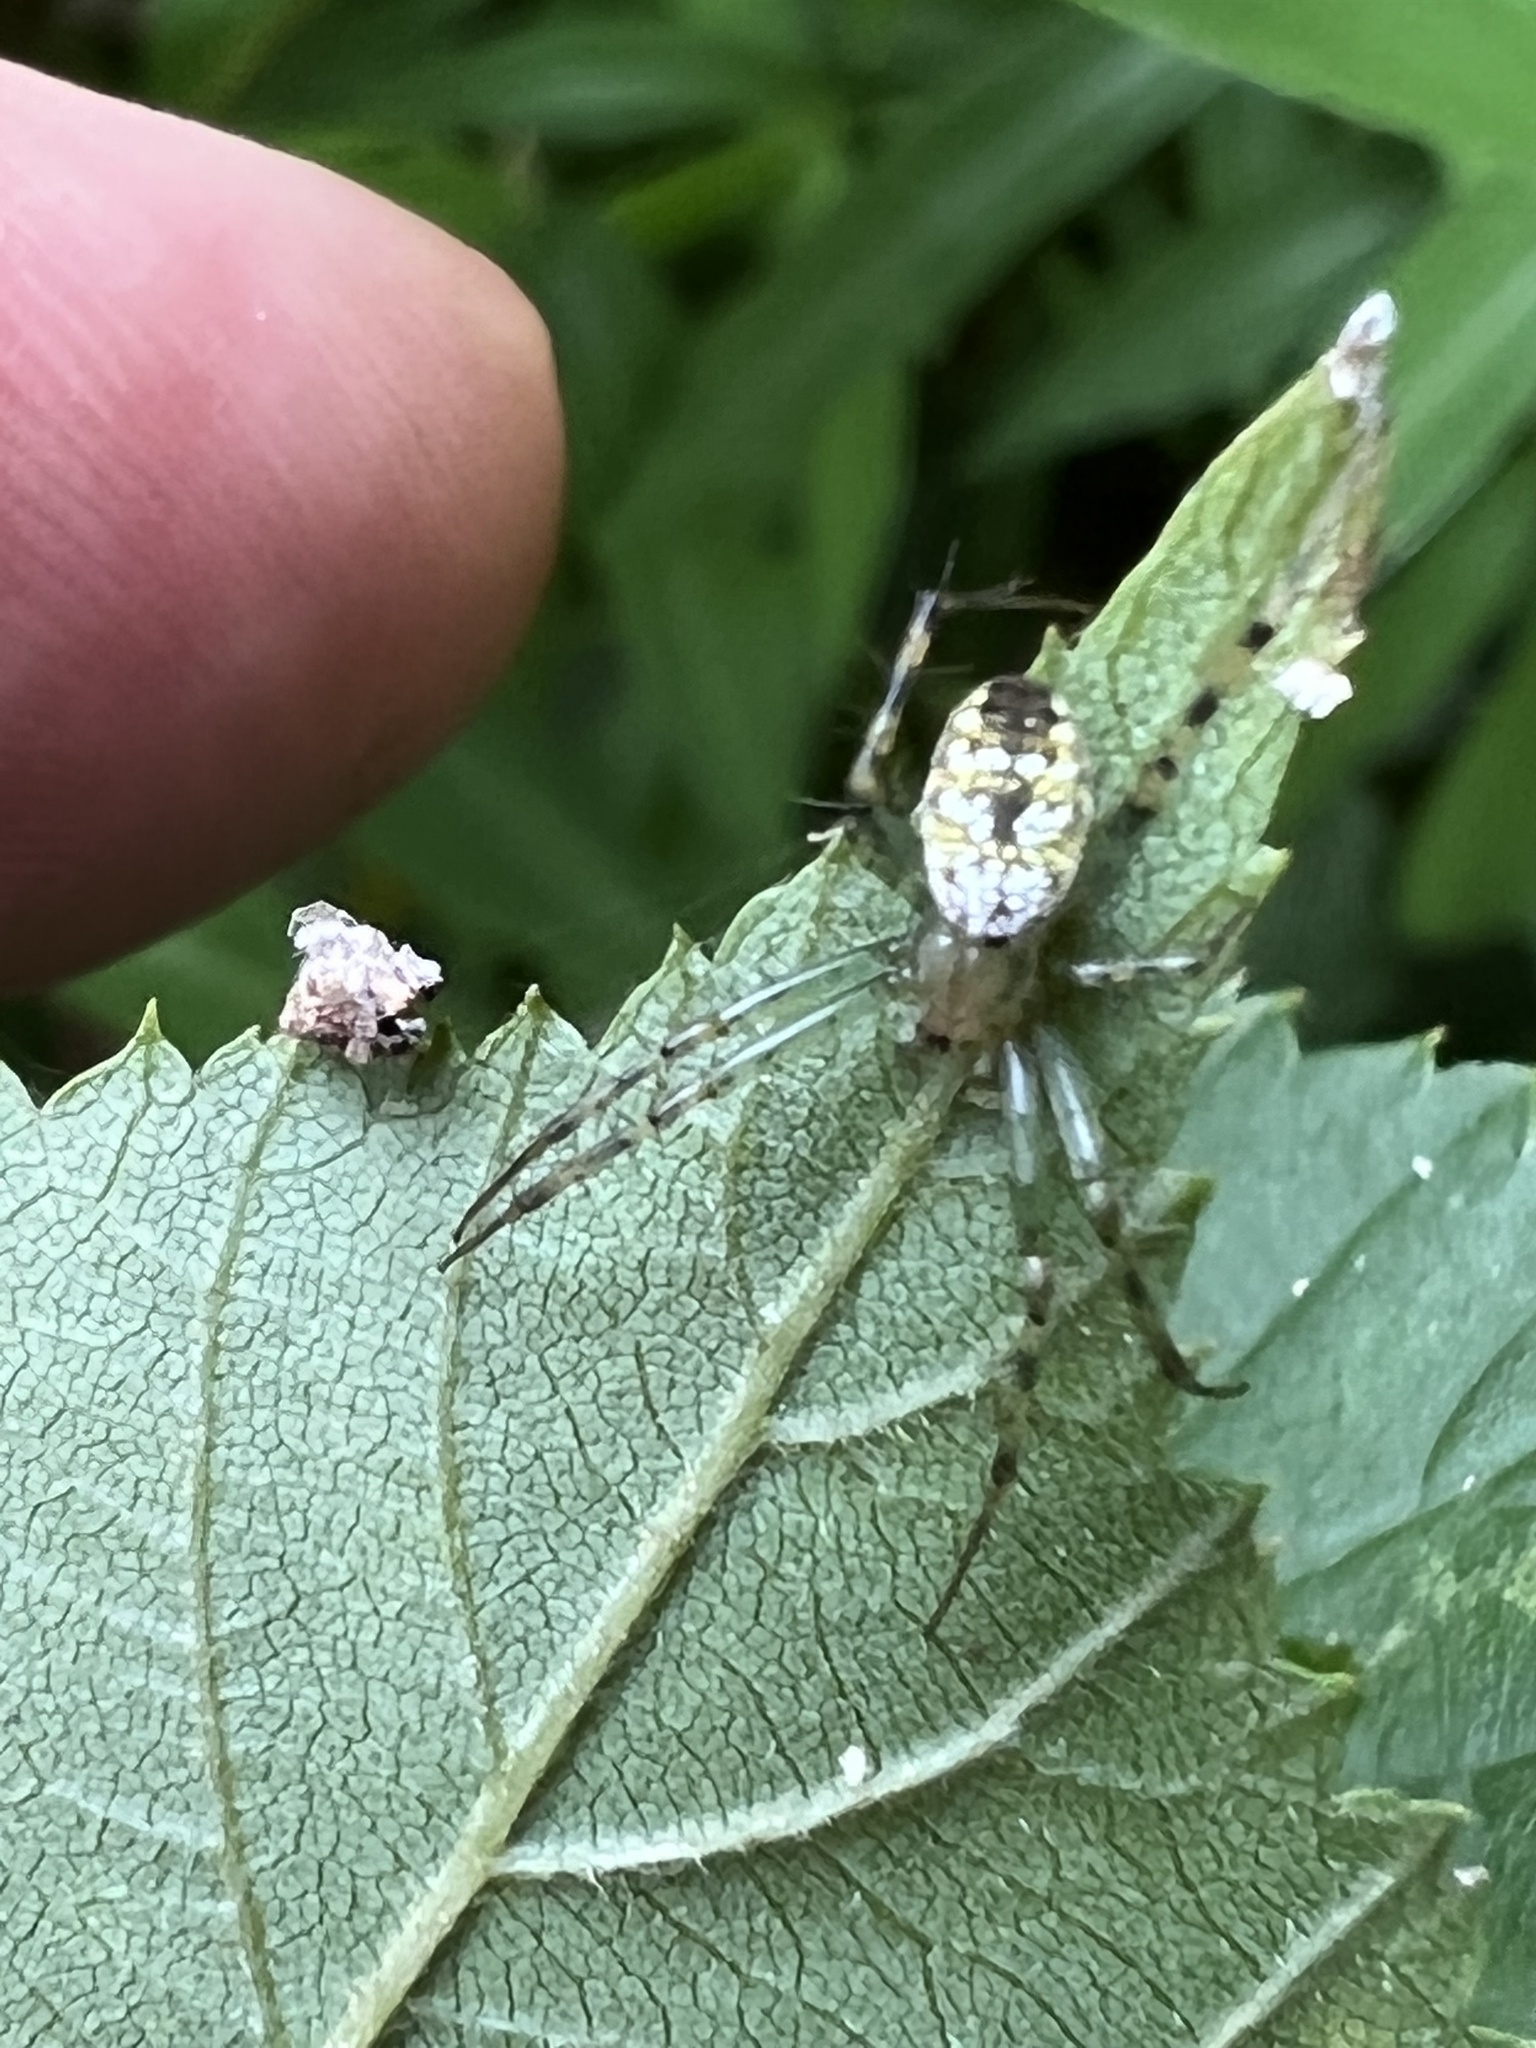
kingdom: Animalia
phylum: Arthropoda
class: Arachnida
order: Araneae
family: Araneidae
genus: Mangora
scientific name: Mangora spiculata
